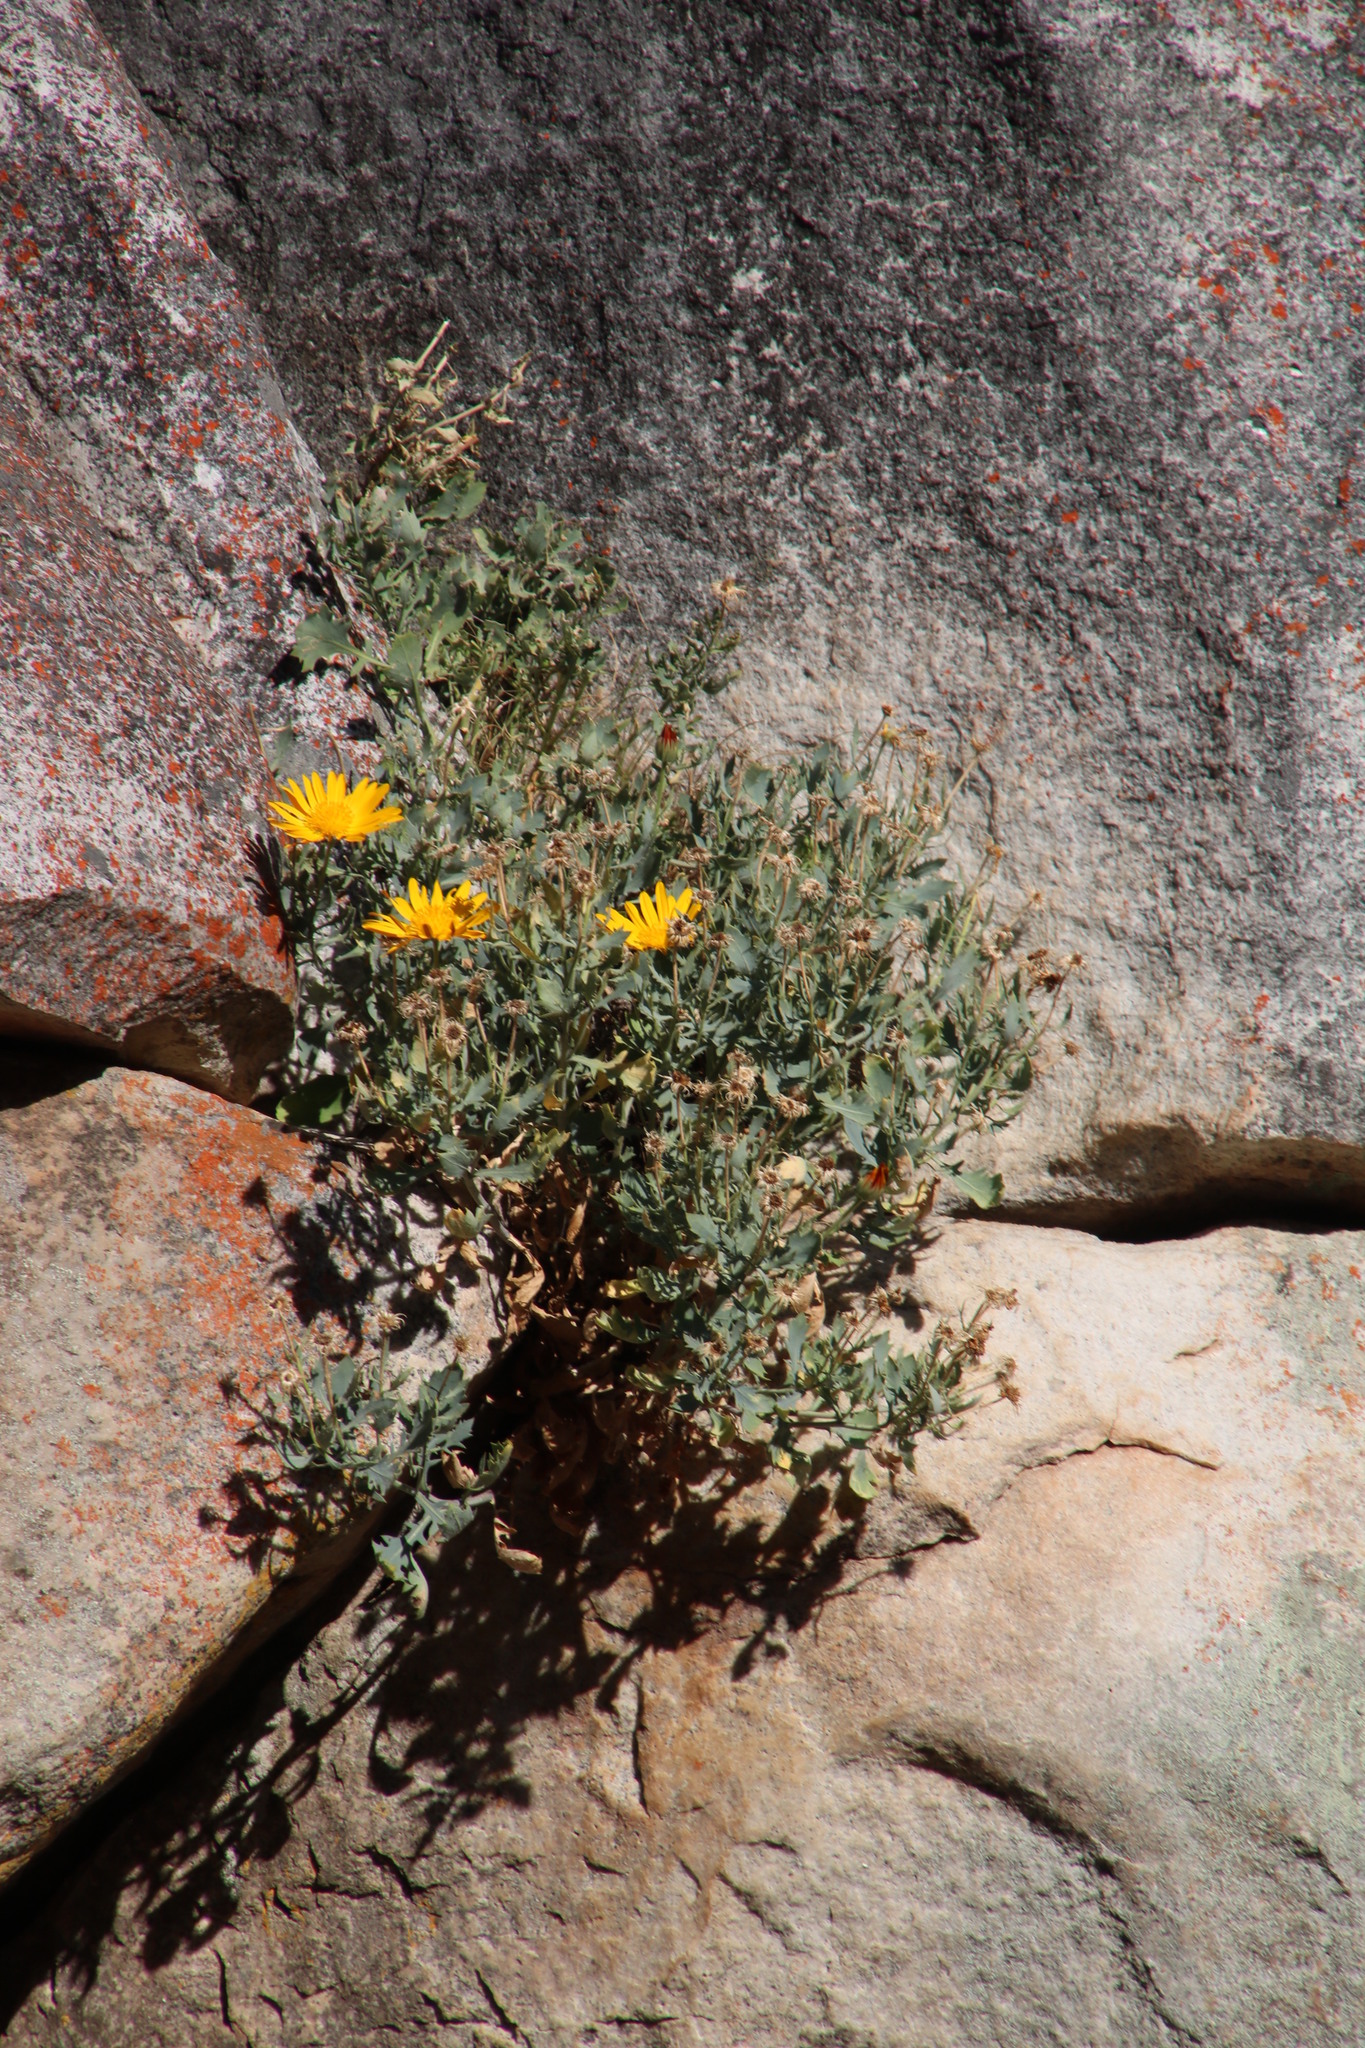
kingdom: Plantae
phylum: Tracheophyta
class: Magnoliopsida
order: Asterales
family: Asteraceae
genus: Dimorphotheca
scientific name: Dimorphotheca chrysanthemifolia
